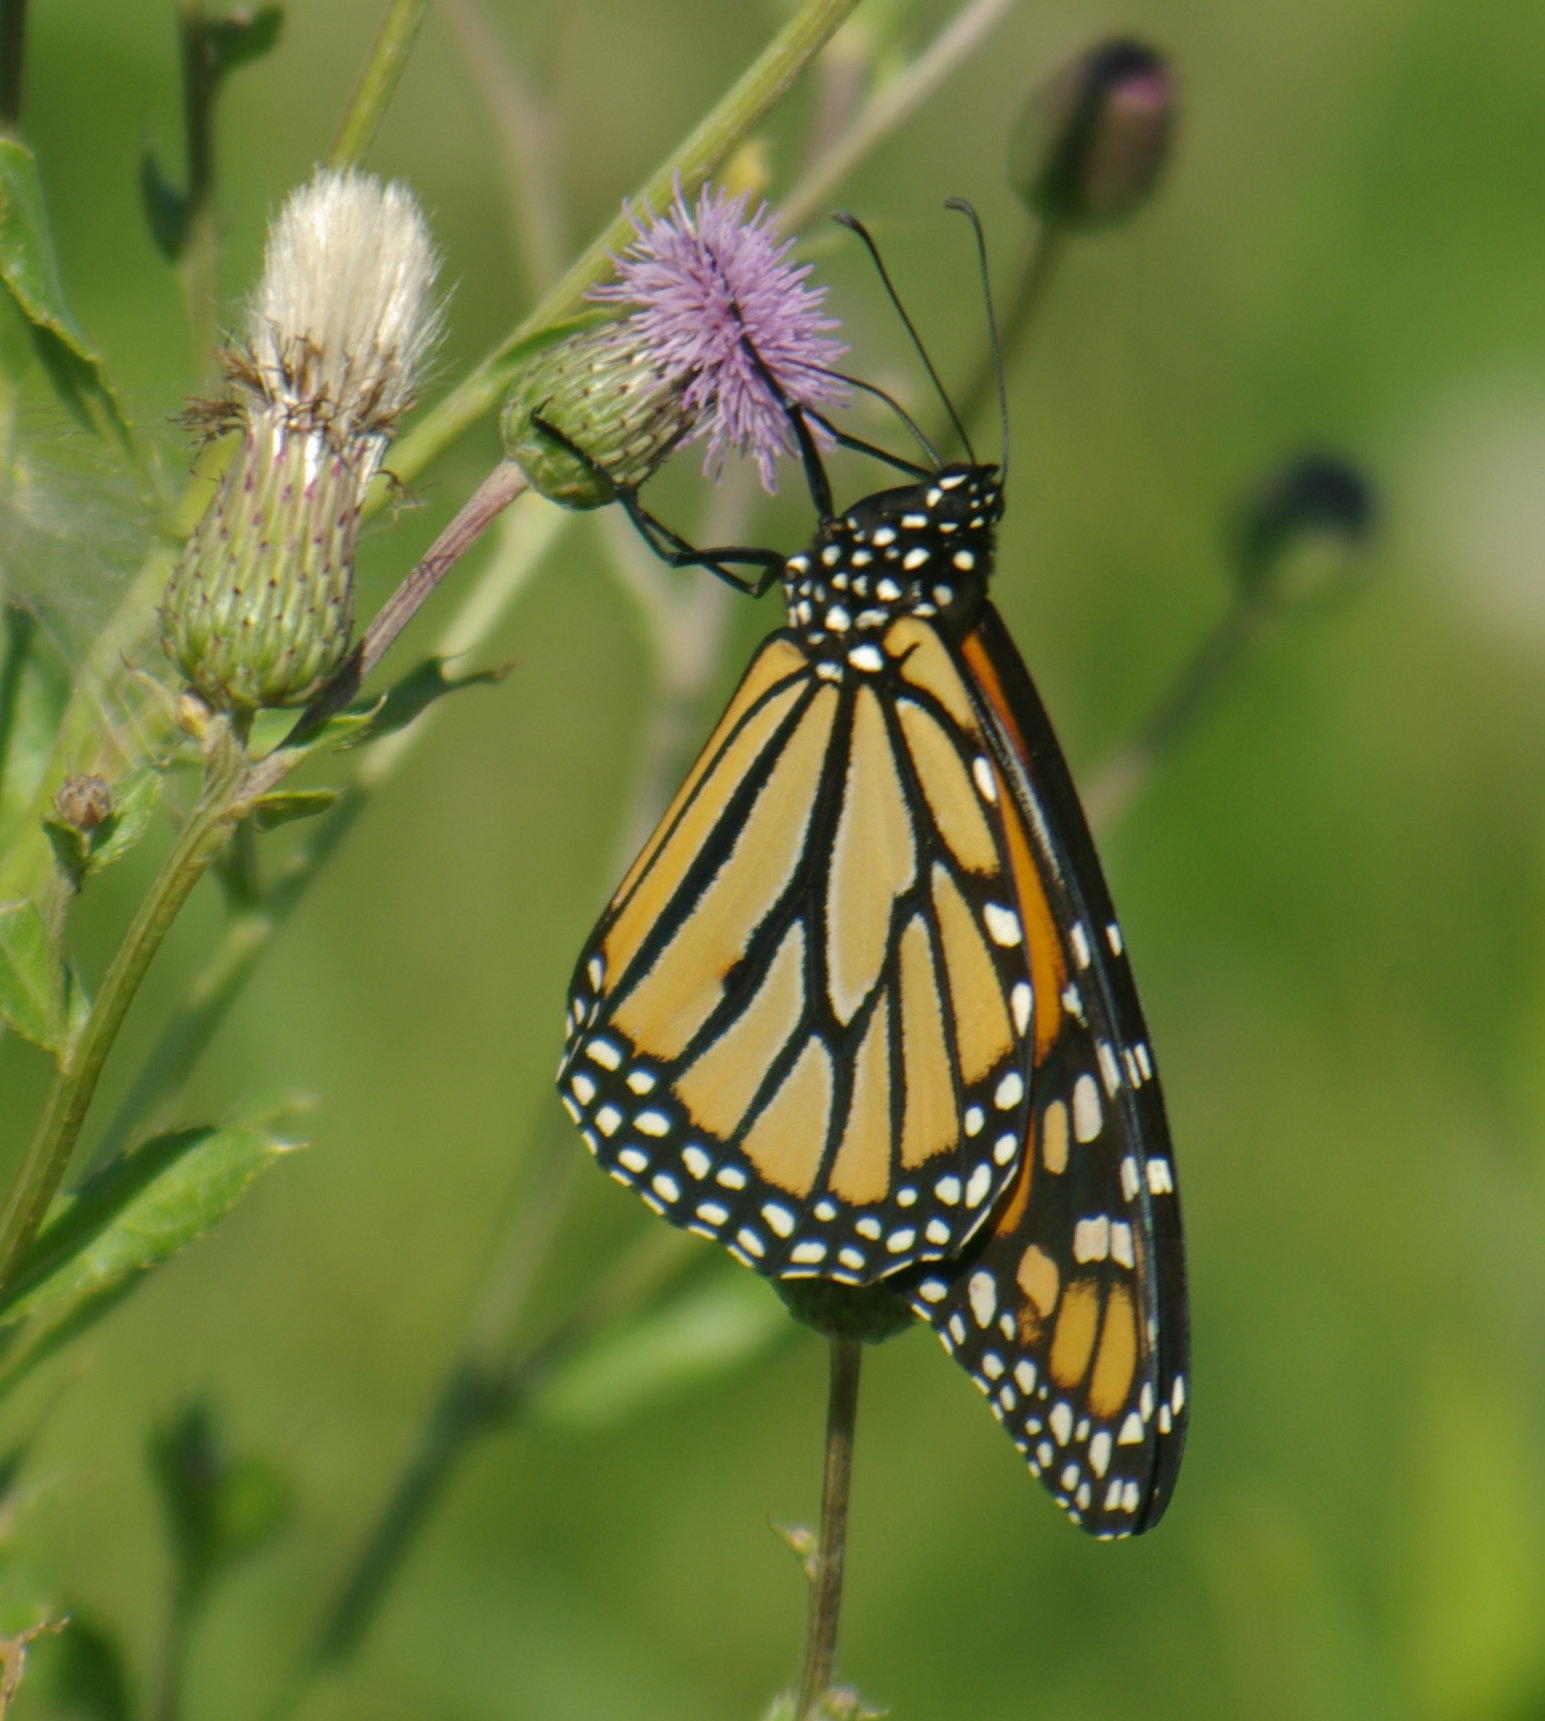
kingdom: Animalia
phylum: Arthropoda
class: Insecta
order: Lepidoptera
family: Nymphalidae
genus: Danaus
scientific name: Danaus plexippus
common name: Monarch
